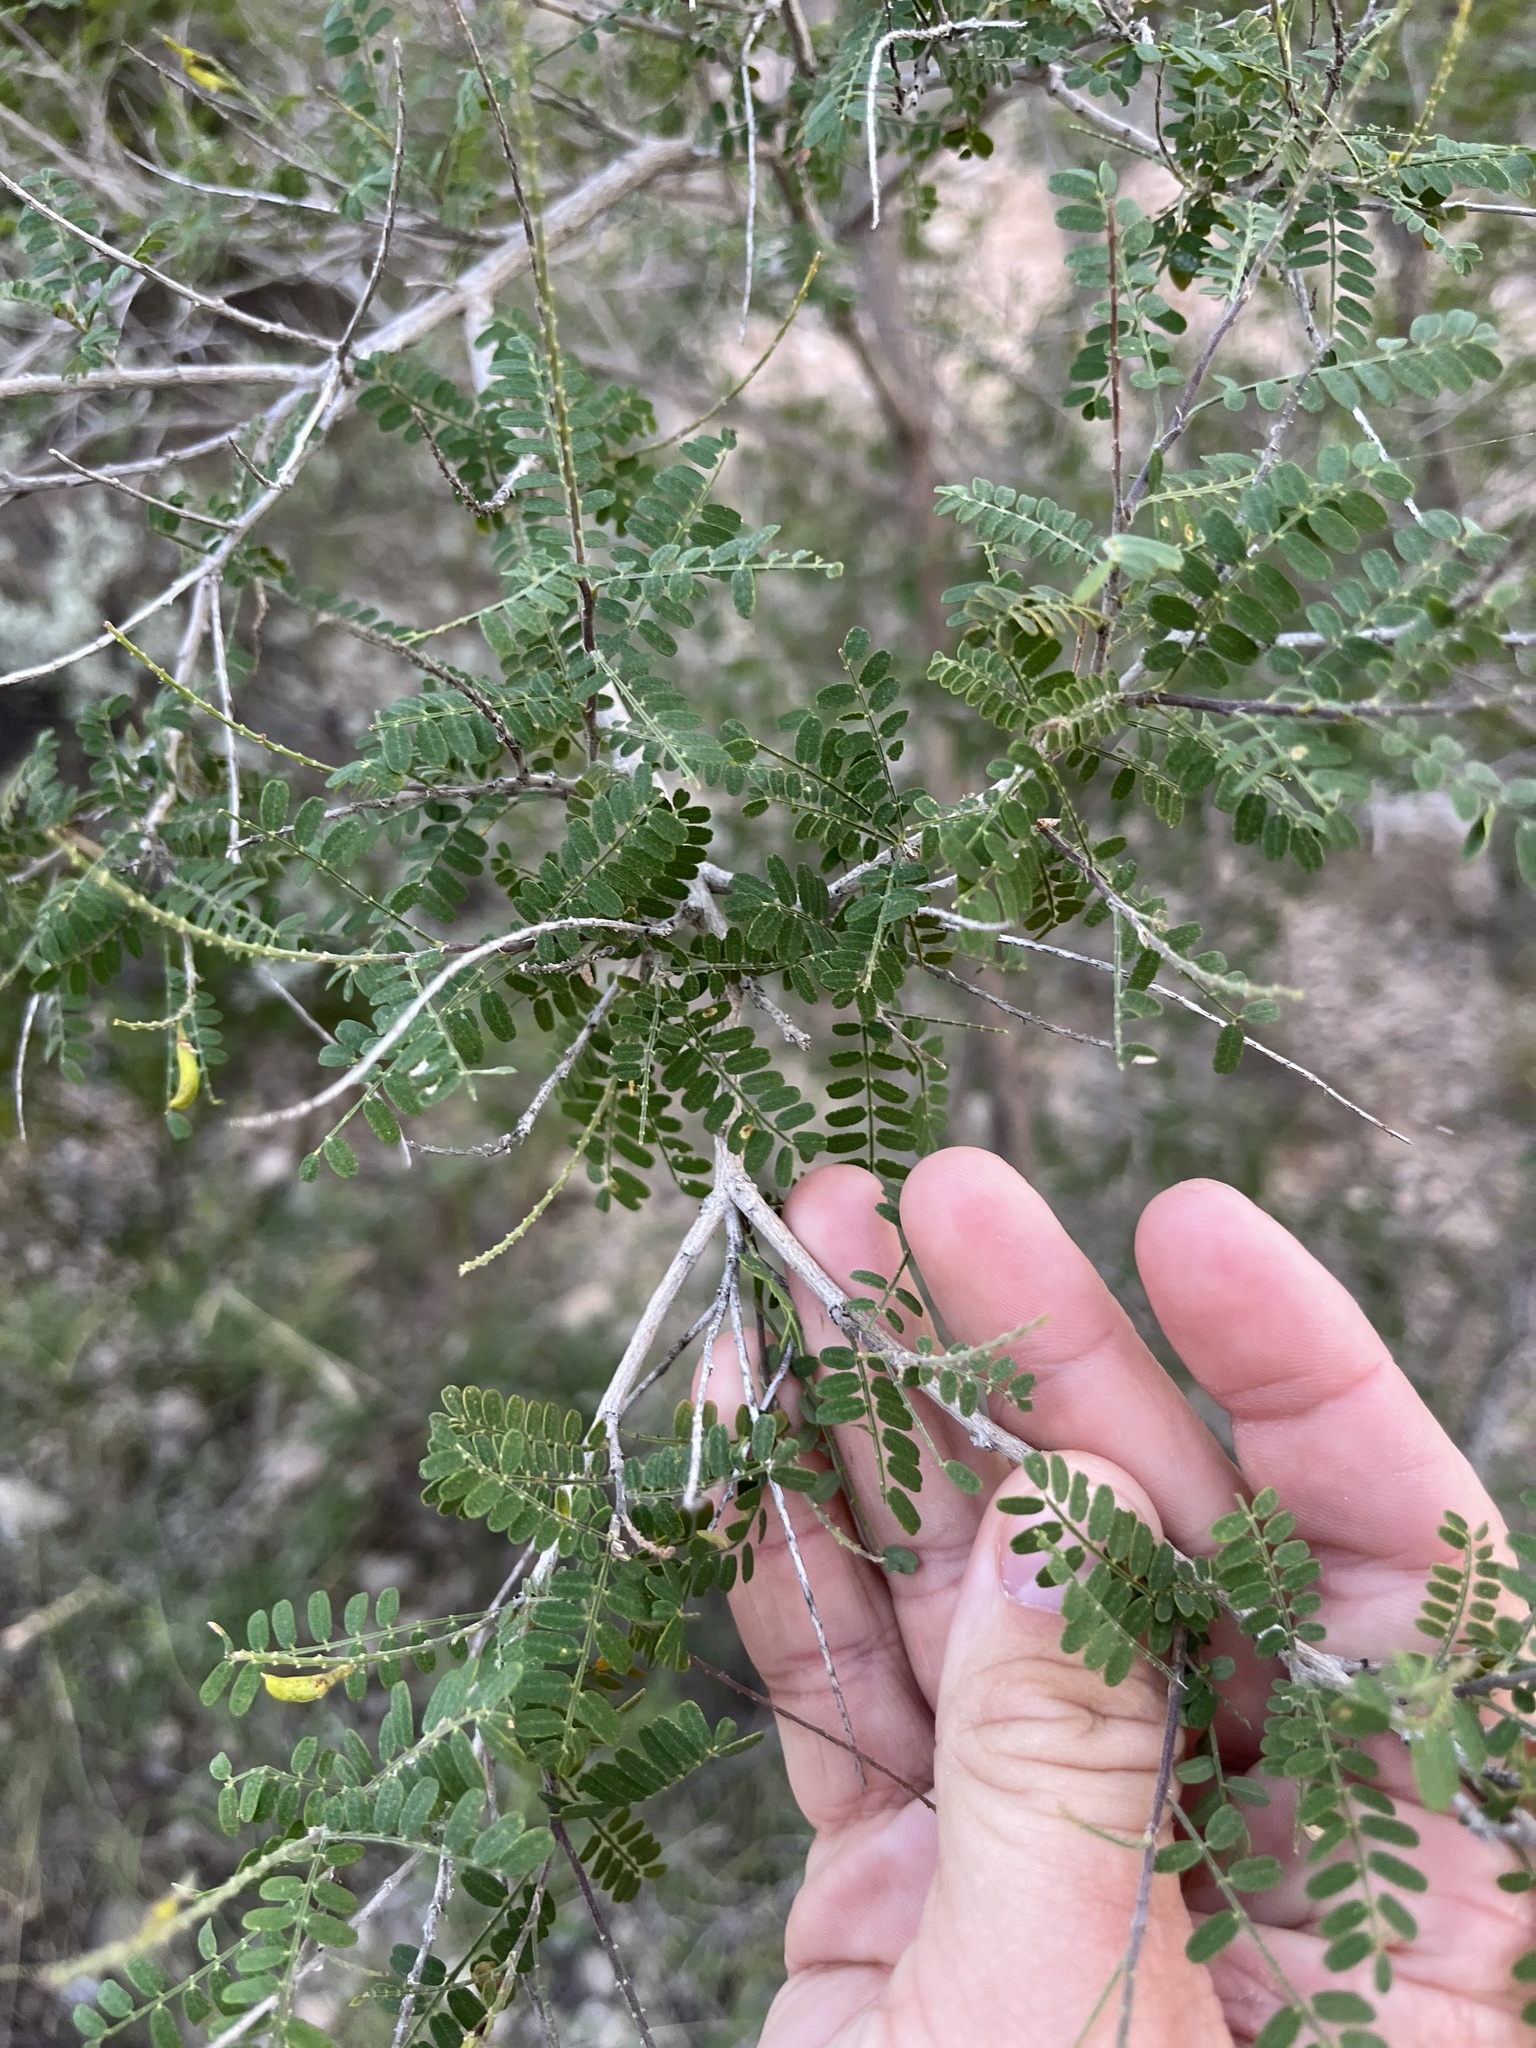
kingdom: Plantae
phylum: Tracheophyta
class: Magnoliopsida
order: Fabales
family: Fabaceae
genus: Eysenhardtia
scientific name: Eysenhardtia texana
